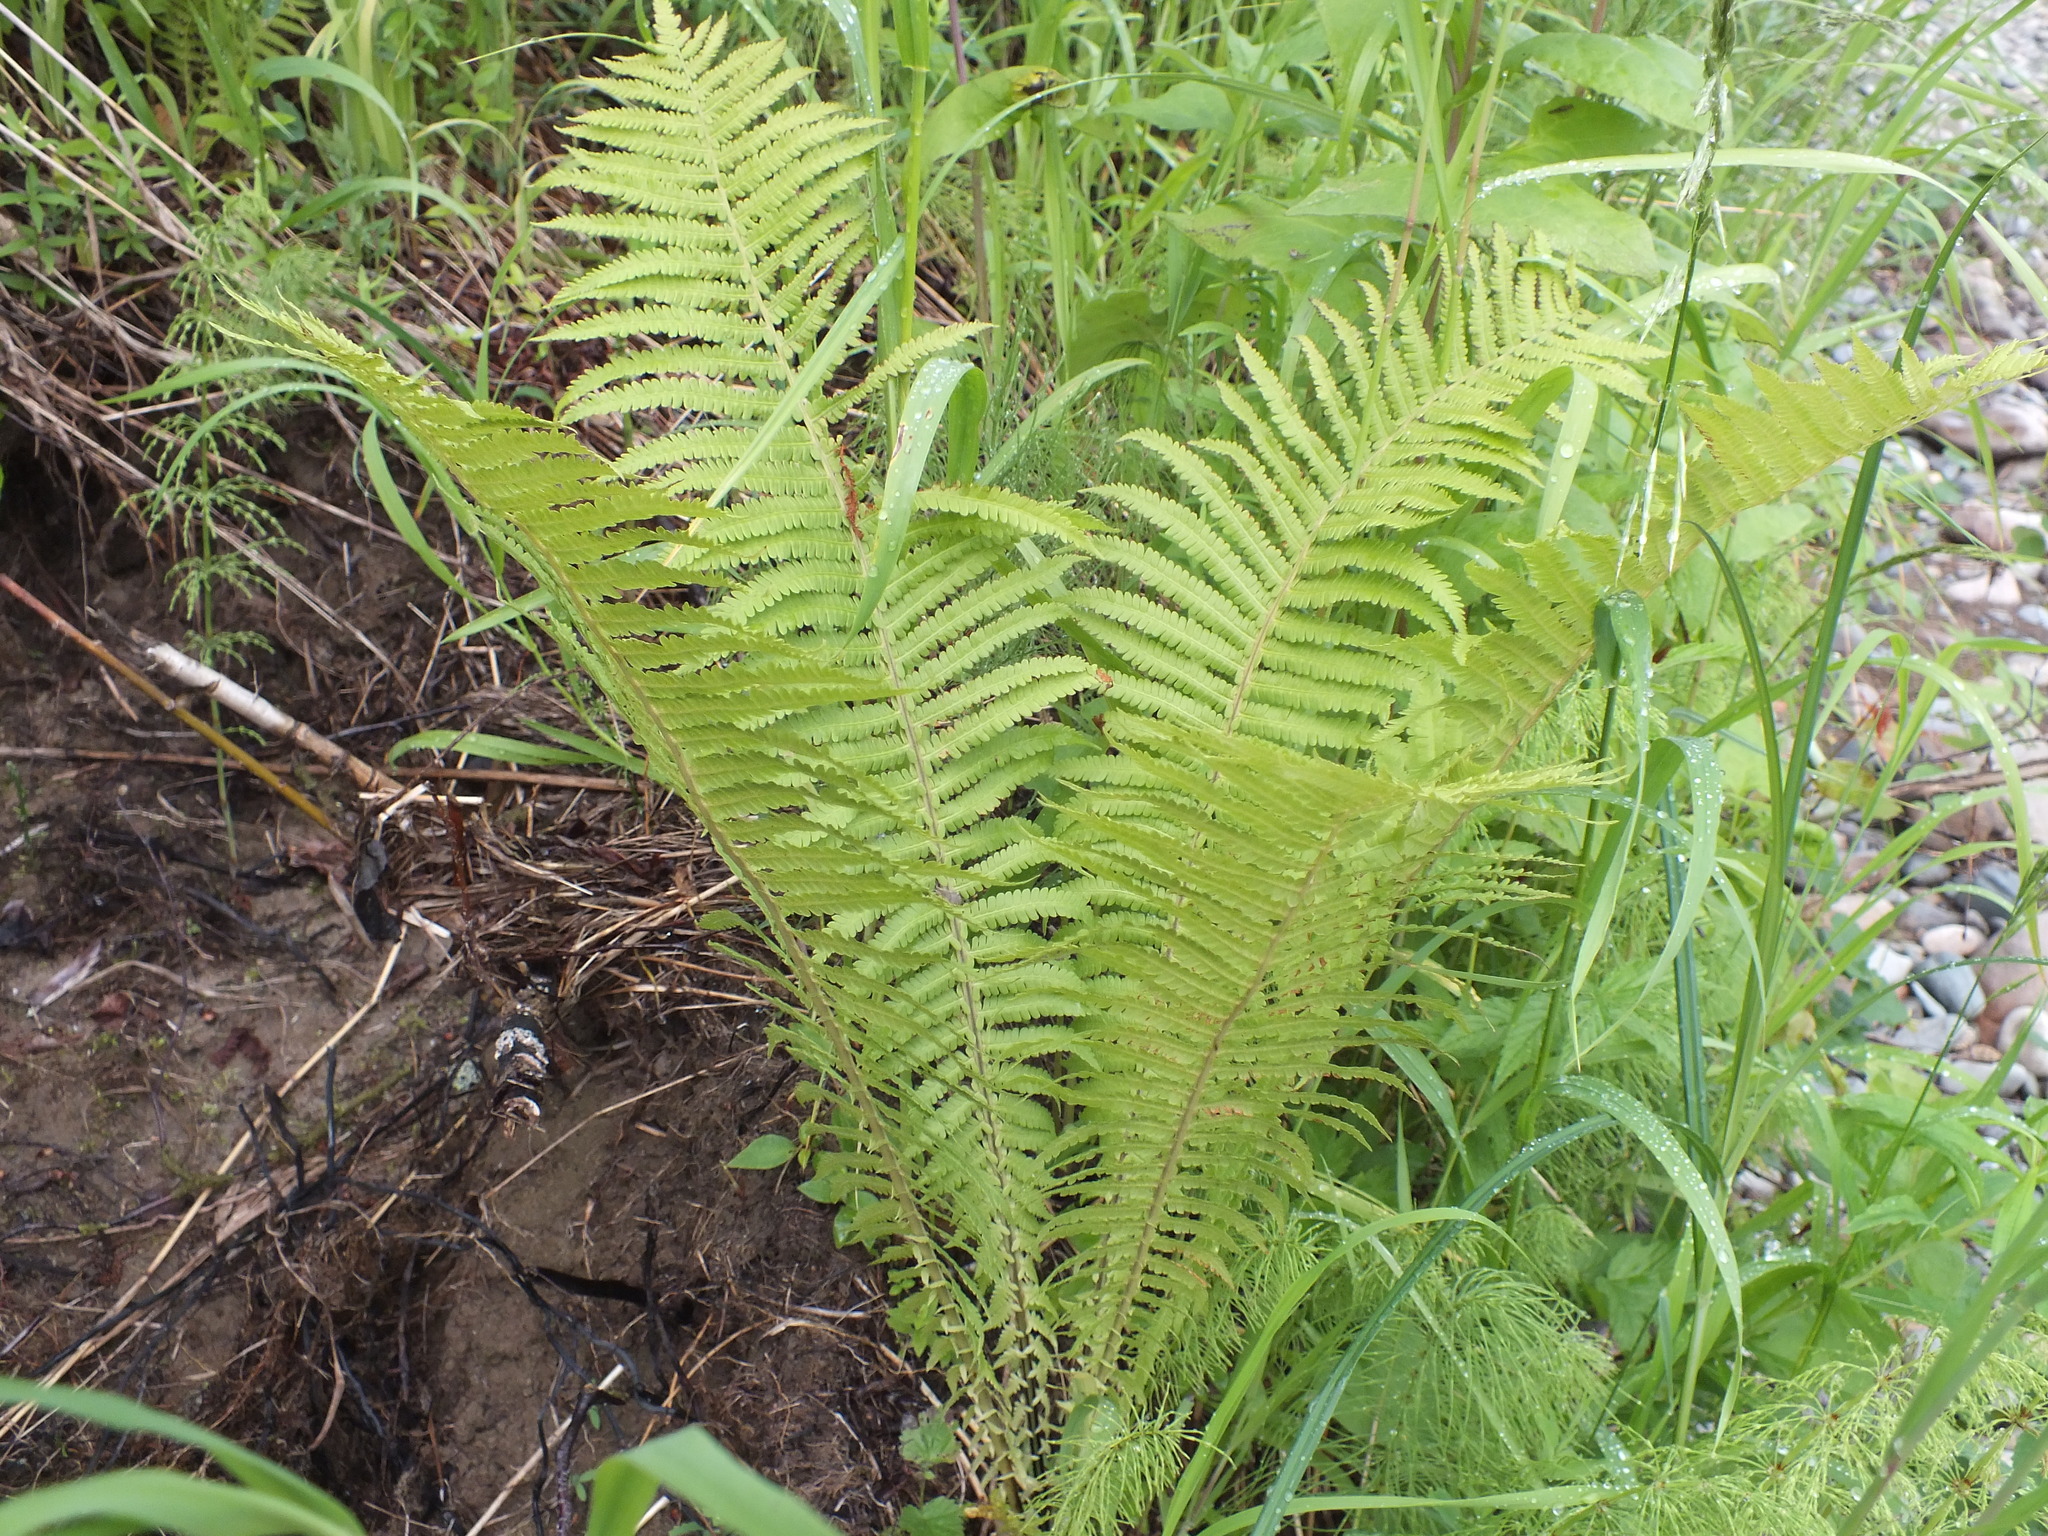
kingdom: Plantae
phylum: Tracheophyta
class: Polypodiopsida
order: Polypodiales
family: Onocleaceae
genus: Matteuccia
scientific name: Matteuccia struthiopteris
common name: Ostrich fern
